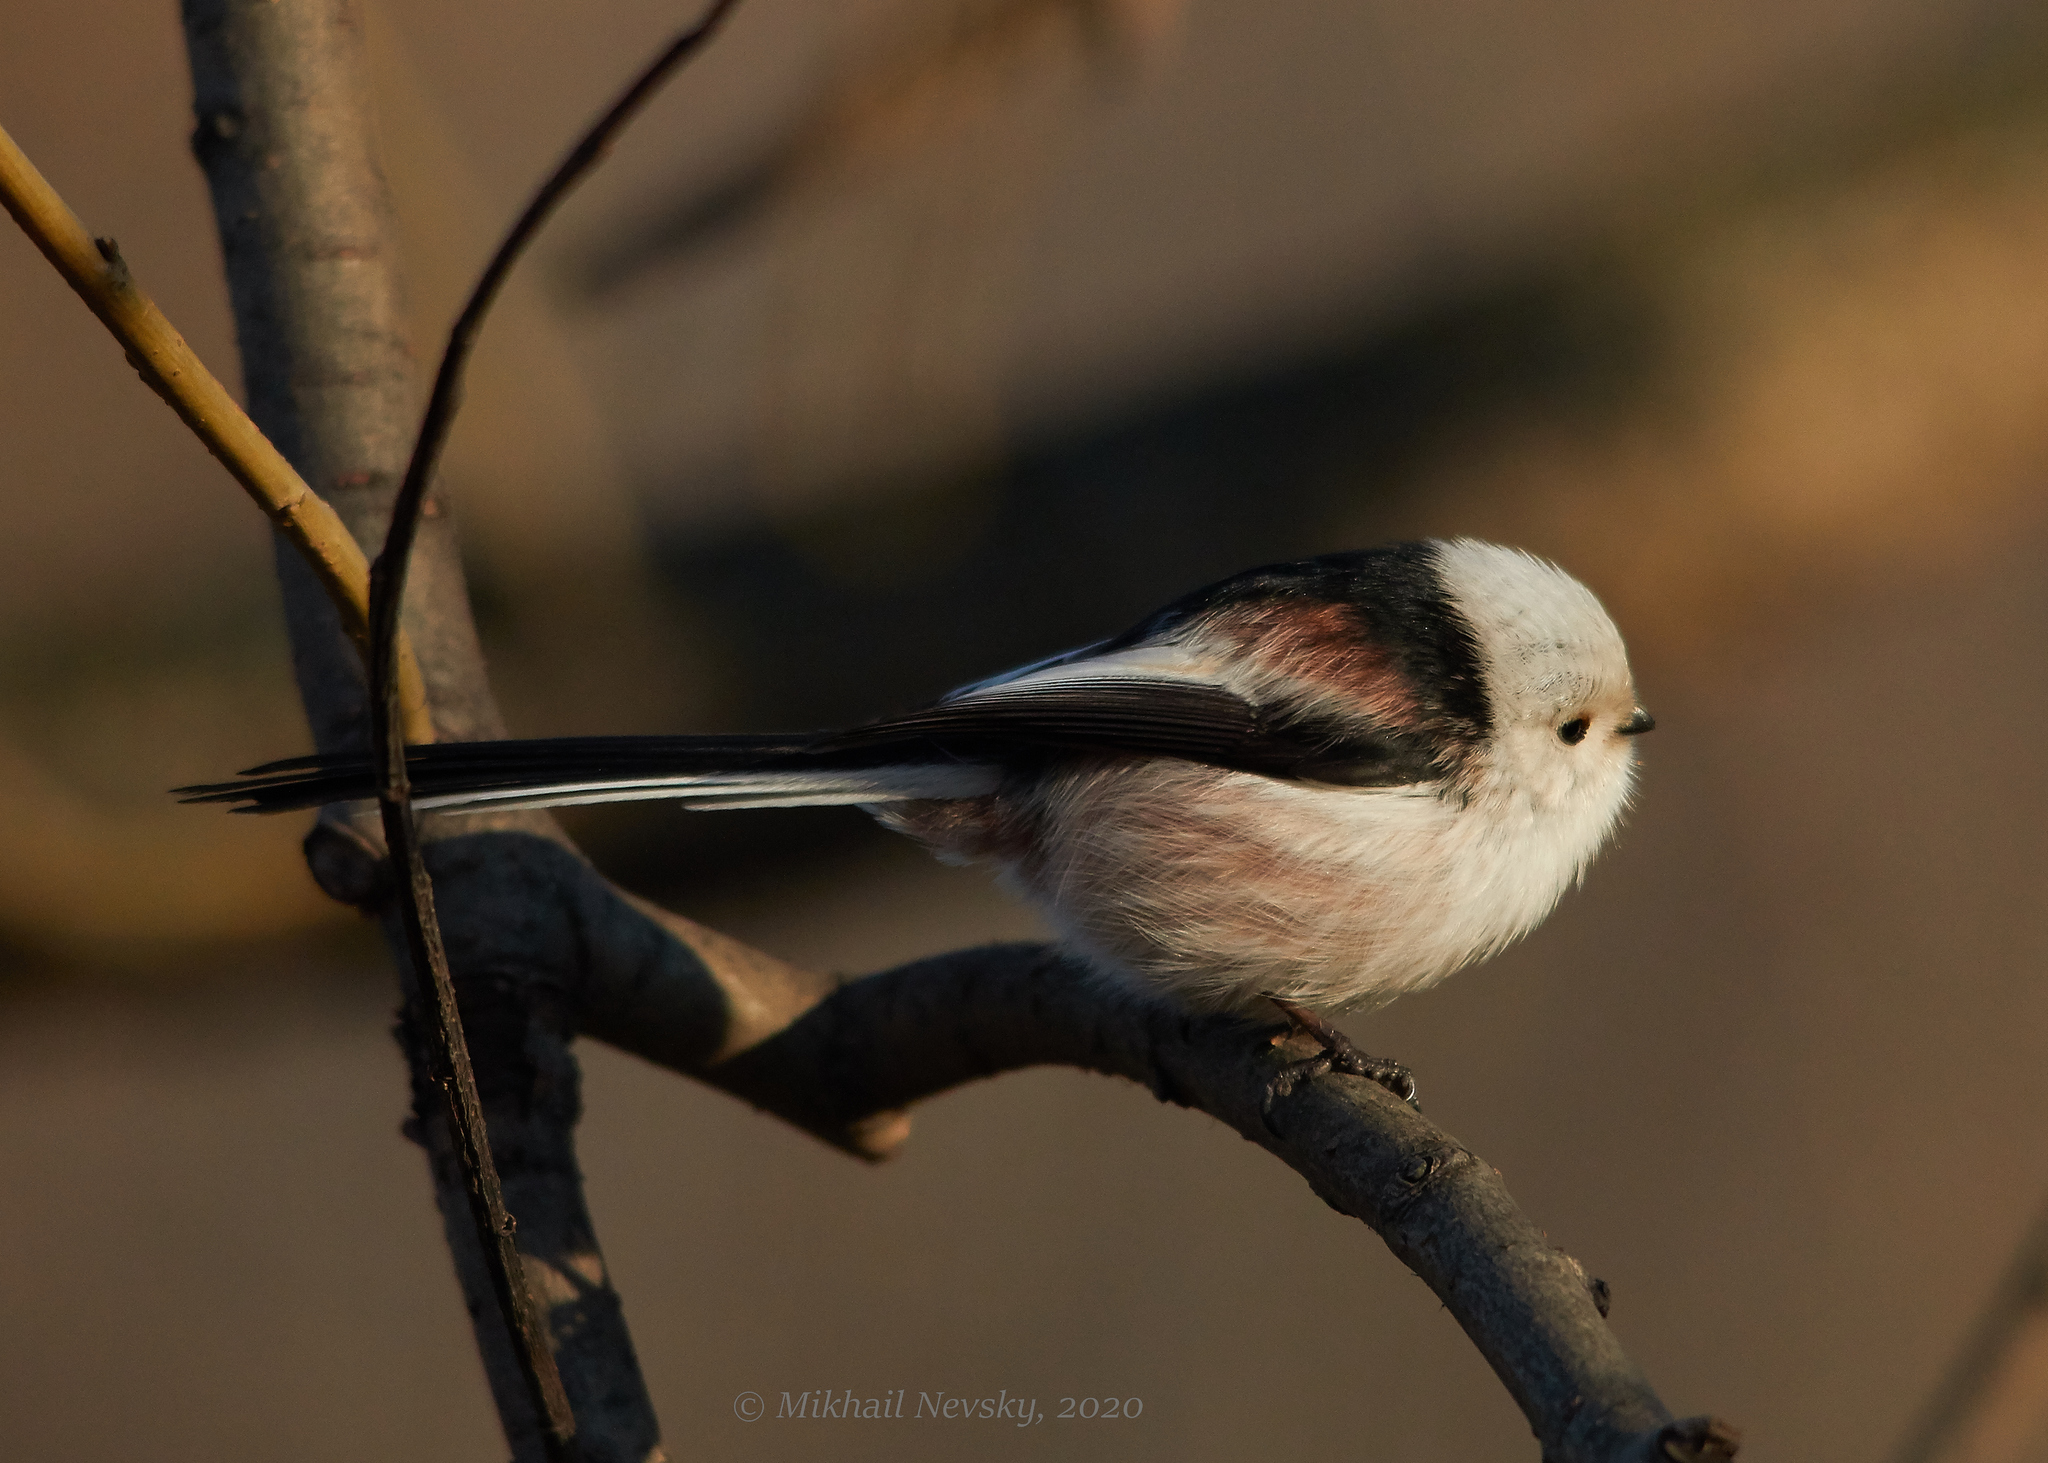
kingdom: Animalia
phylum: Chordata
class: Aves
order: Passeriformes
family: Aegithalidae
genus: Aegithalos
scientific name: Aegithalos caudatus
